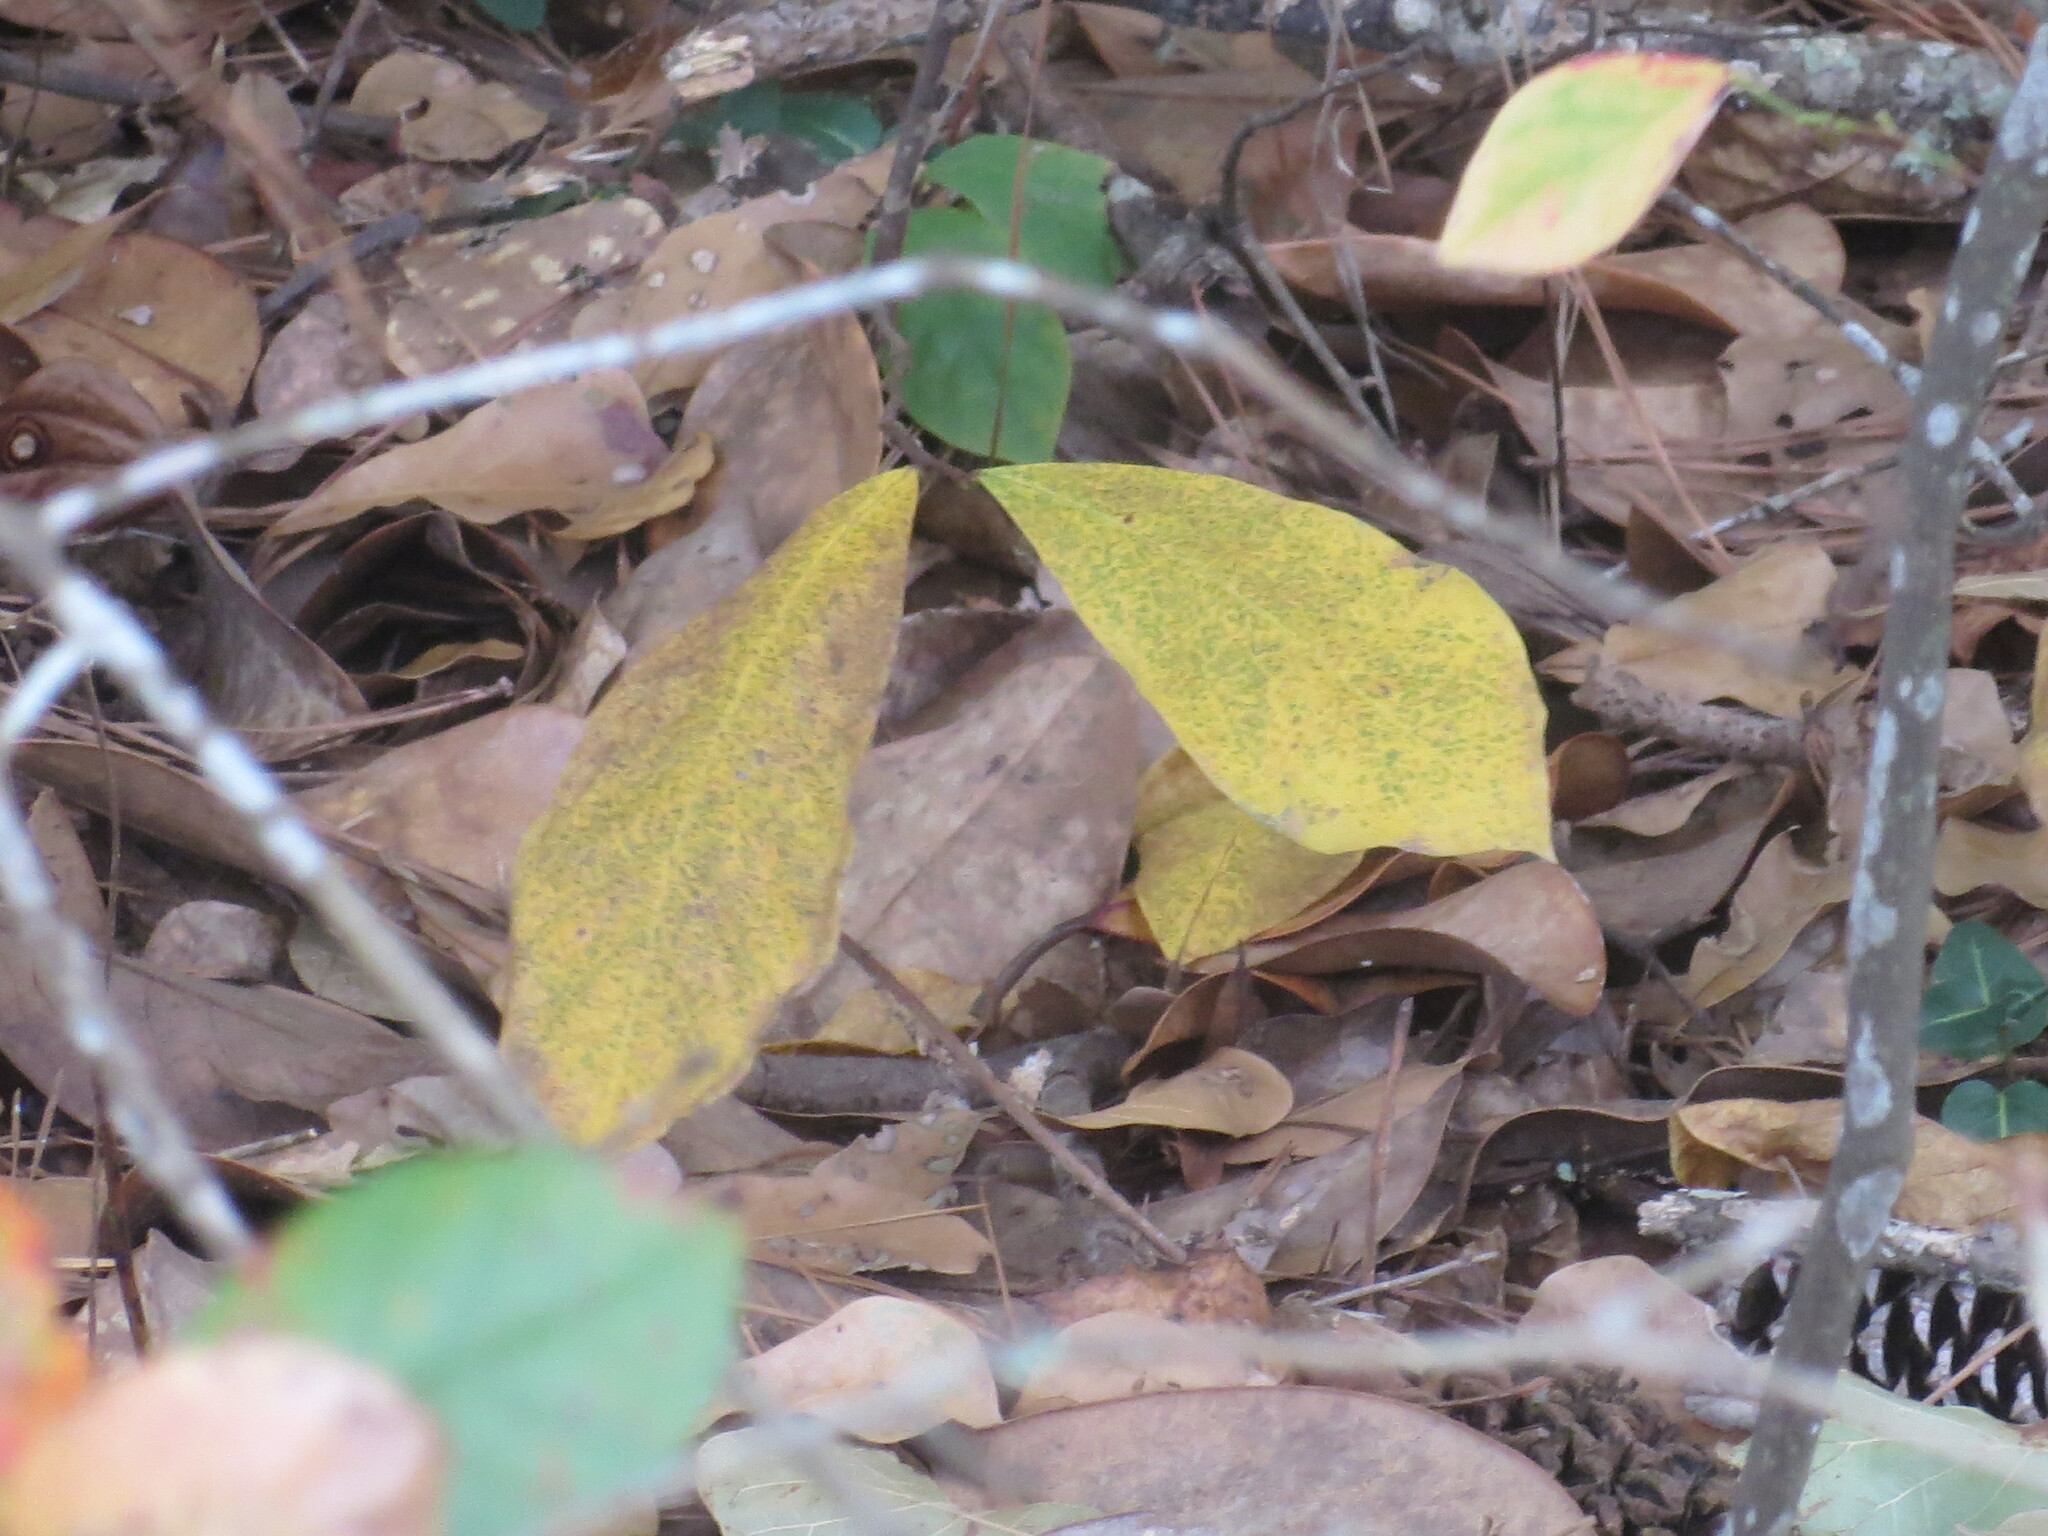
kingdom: Plantae
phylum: Tracheophyta
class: Magnoliopsida
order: Magnoliales
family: Annonaceae
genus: Asimina
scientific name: Asimina parviflora
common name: Dwarf pawpaw
